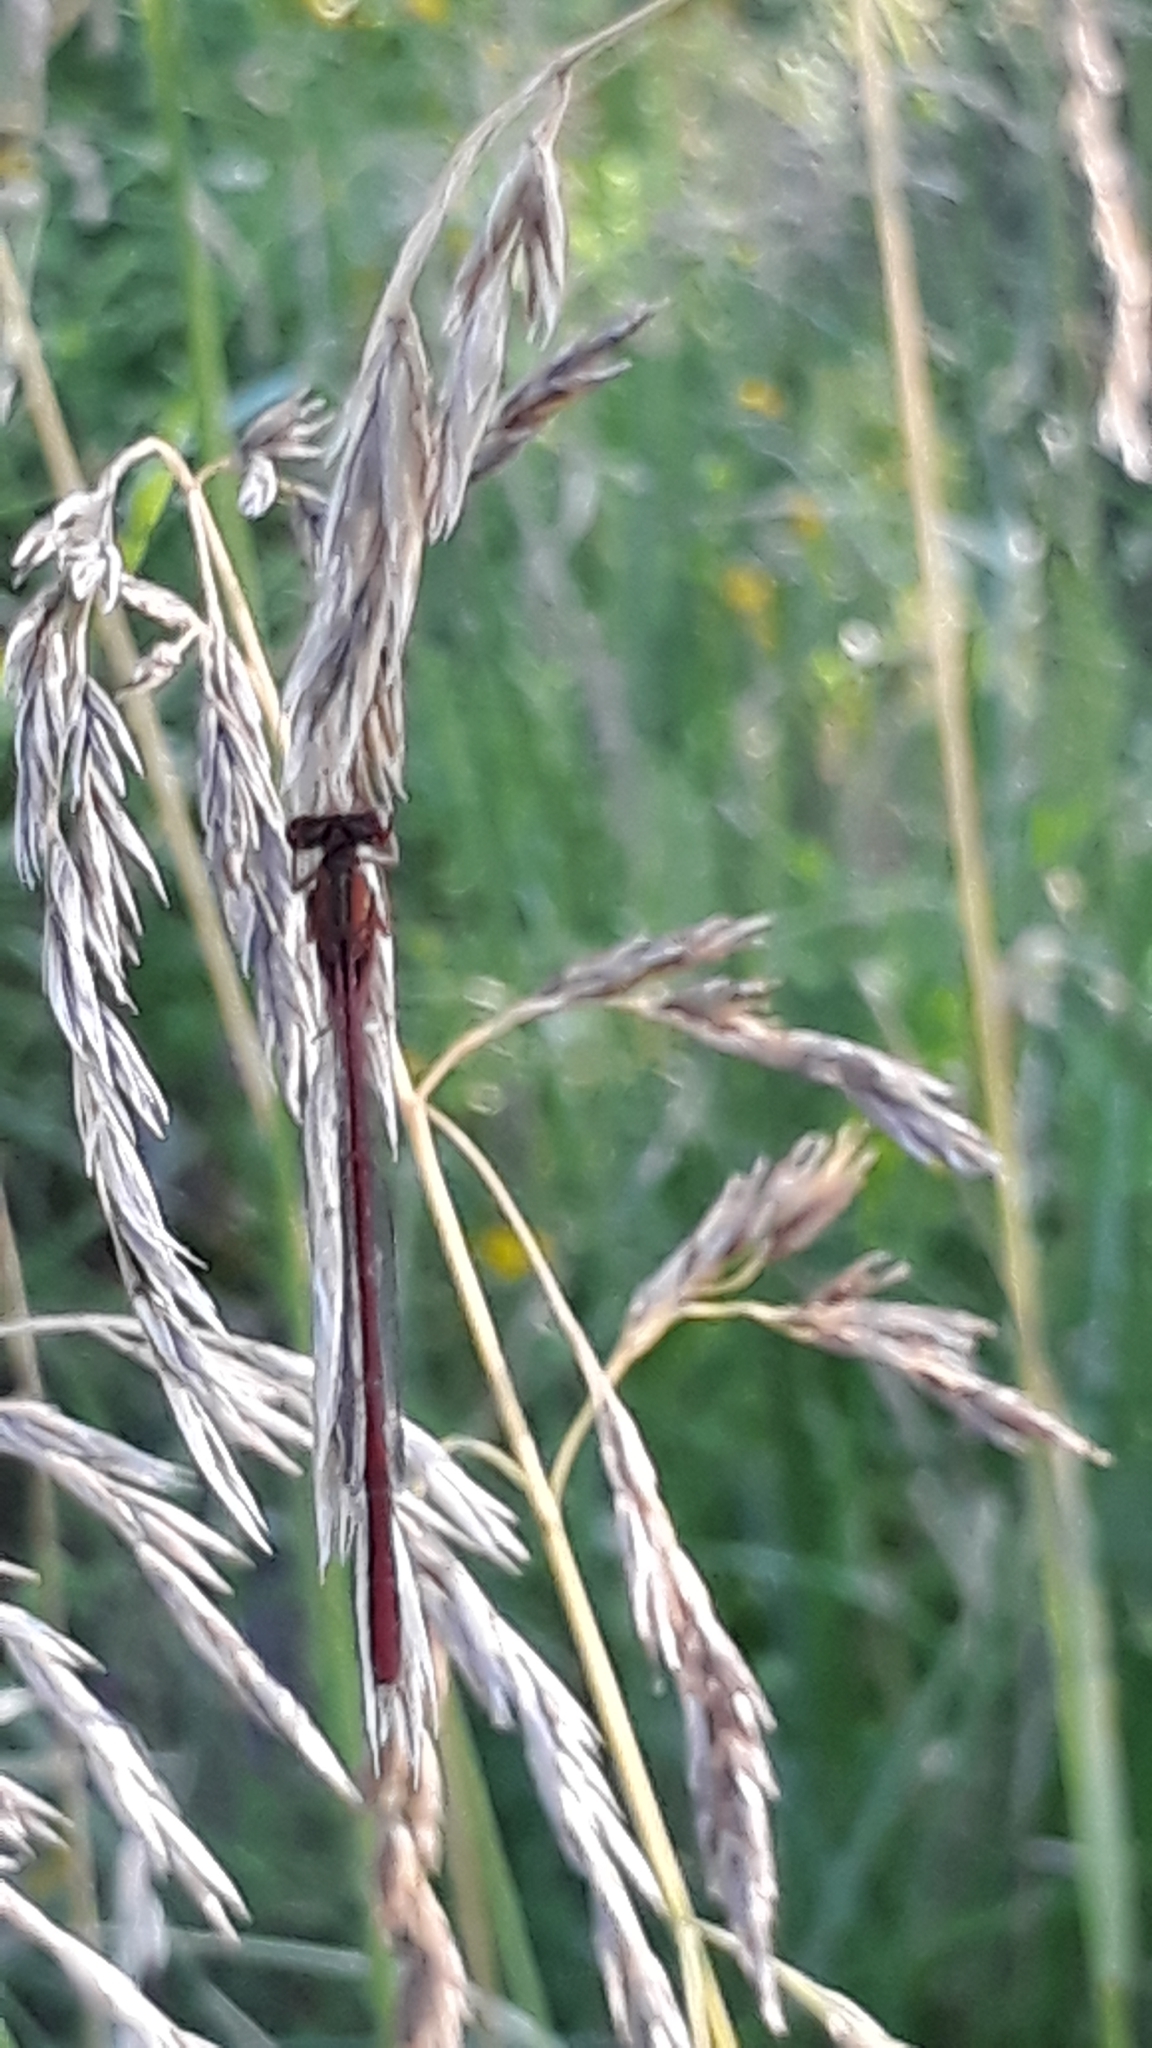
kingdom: Animalia
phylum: Arthropoda
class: Insecta
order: Odonata
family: Coenagrionidae
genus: Xanthocnemis
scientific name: Xanthocnemis zealandica
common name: Common redcoat damselfly
